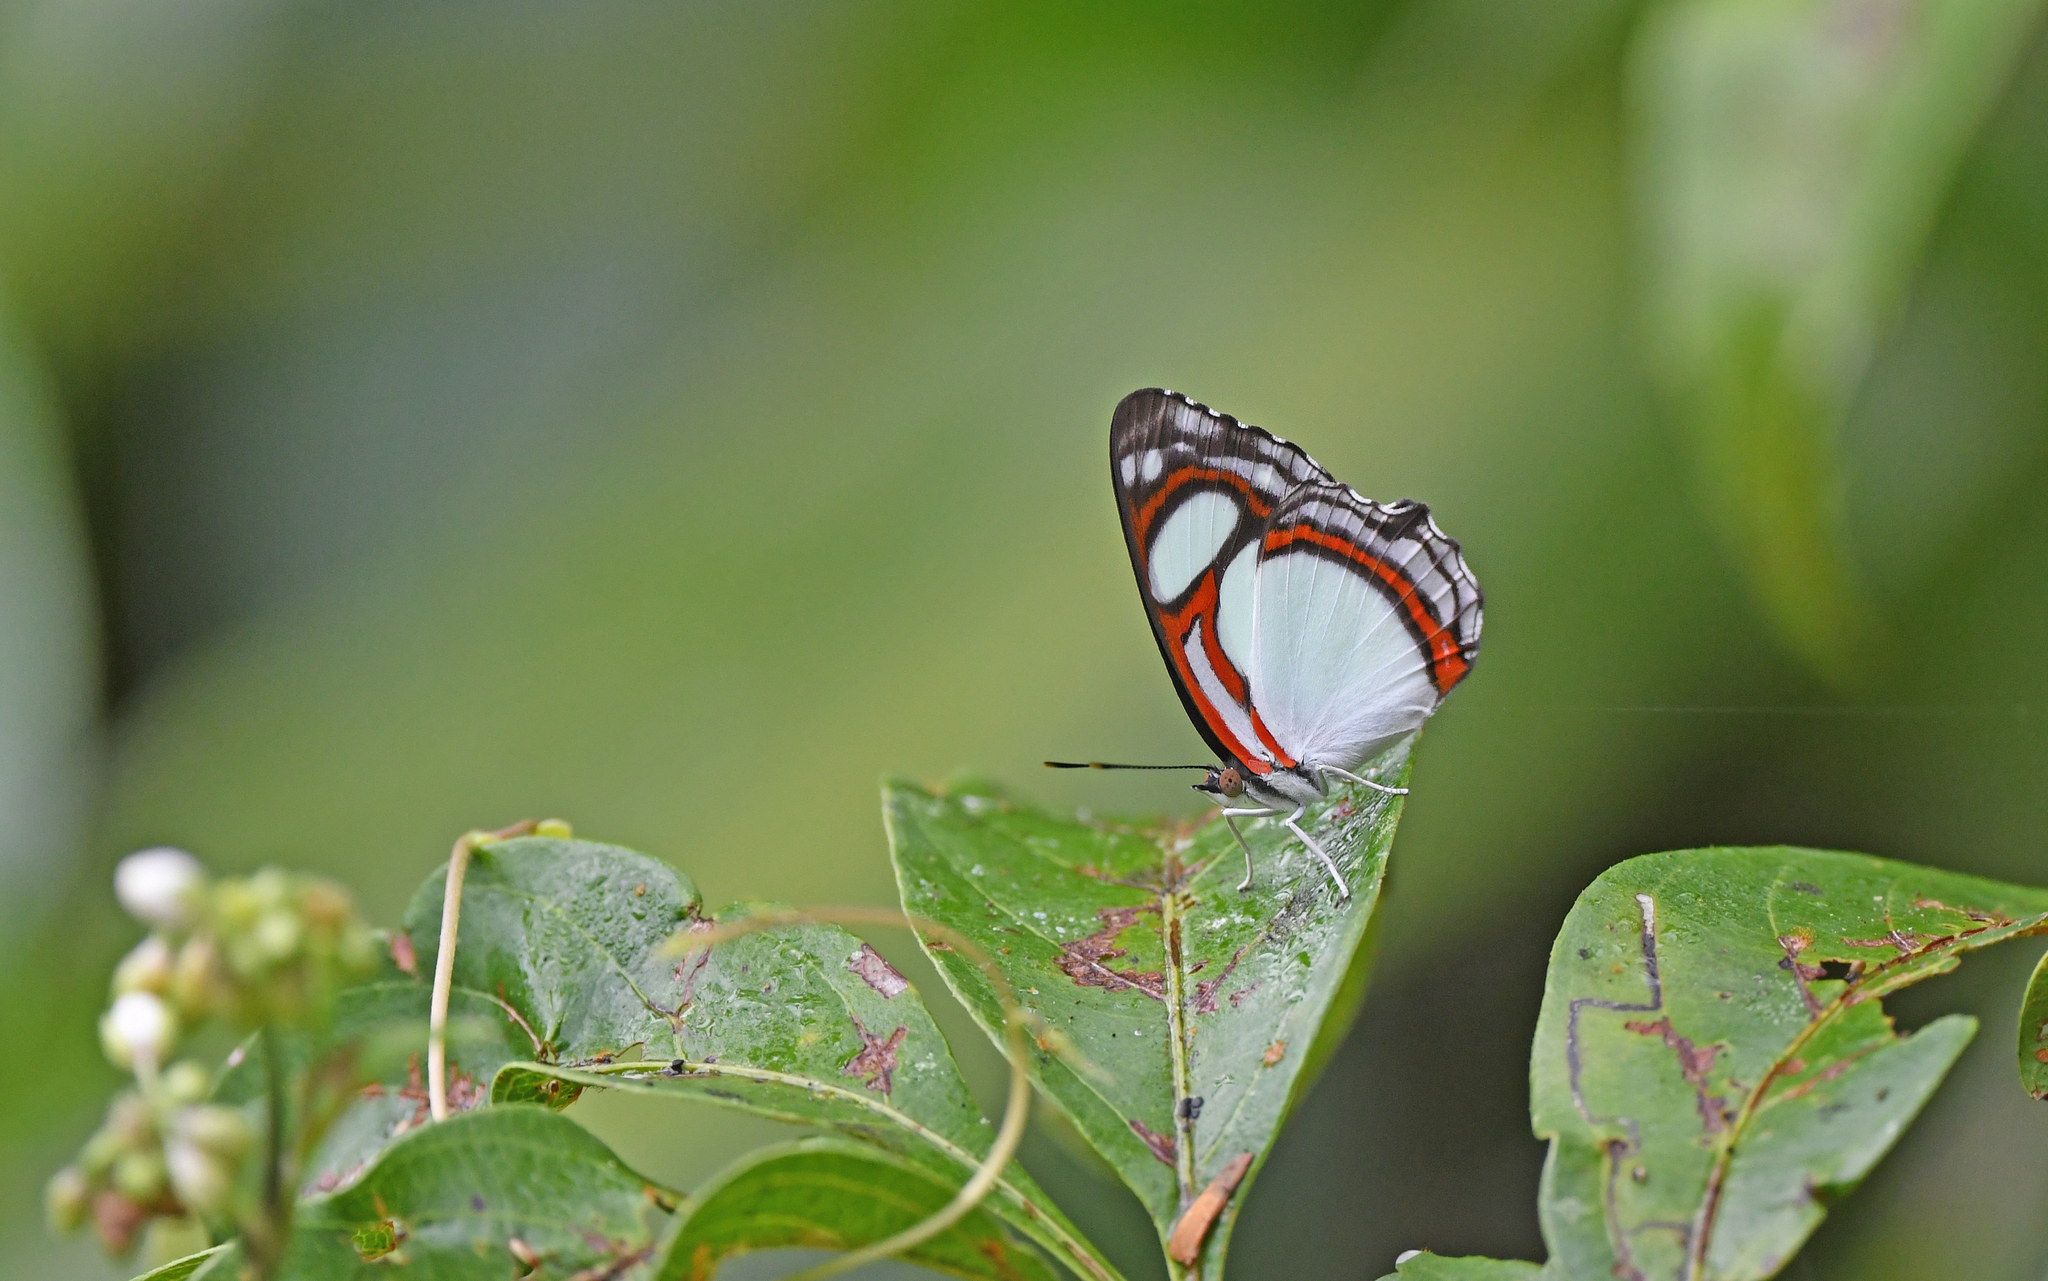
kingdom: Animalia
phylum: Arthropoda
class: Insecta
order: Lepidoptera
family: Nymphalidae
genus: Pyrrhogyra
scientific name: Pyrrhogyra otolais
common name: Double-banded banner
